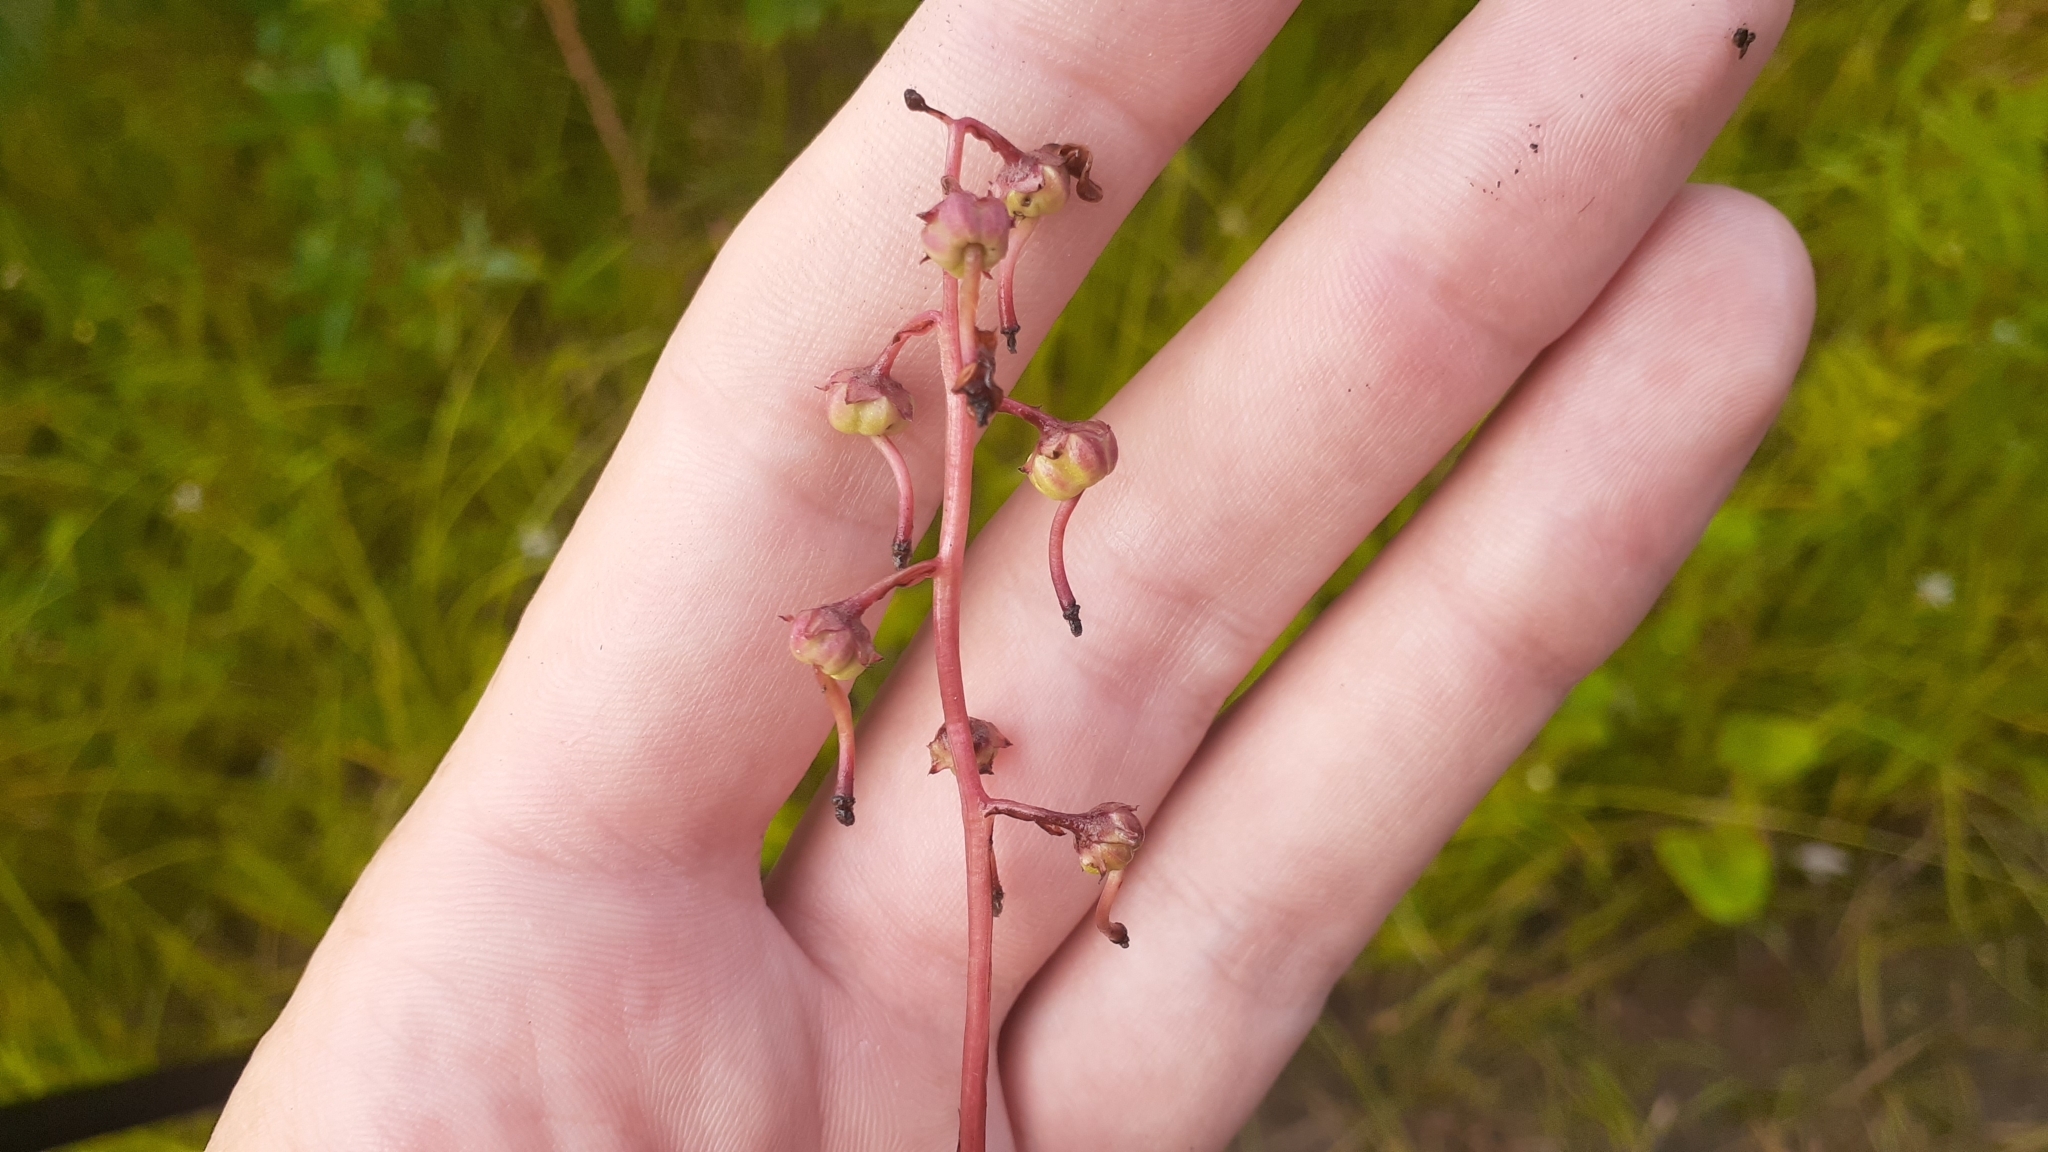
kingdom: Plantae
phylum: Tracheophyta
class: Magnoliopsida
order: Ericales
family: Ericaceae
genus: Pyrola
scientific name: Pyrola asarifolia
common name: Bog wintergreen
